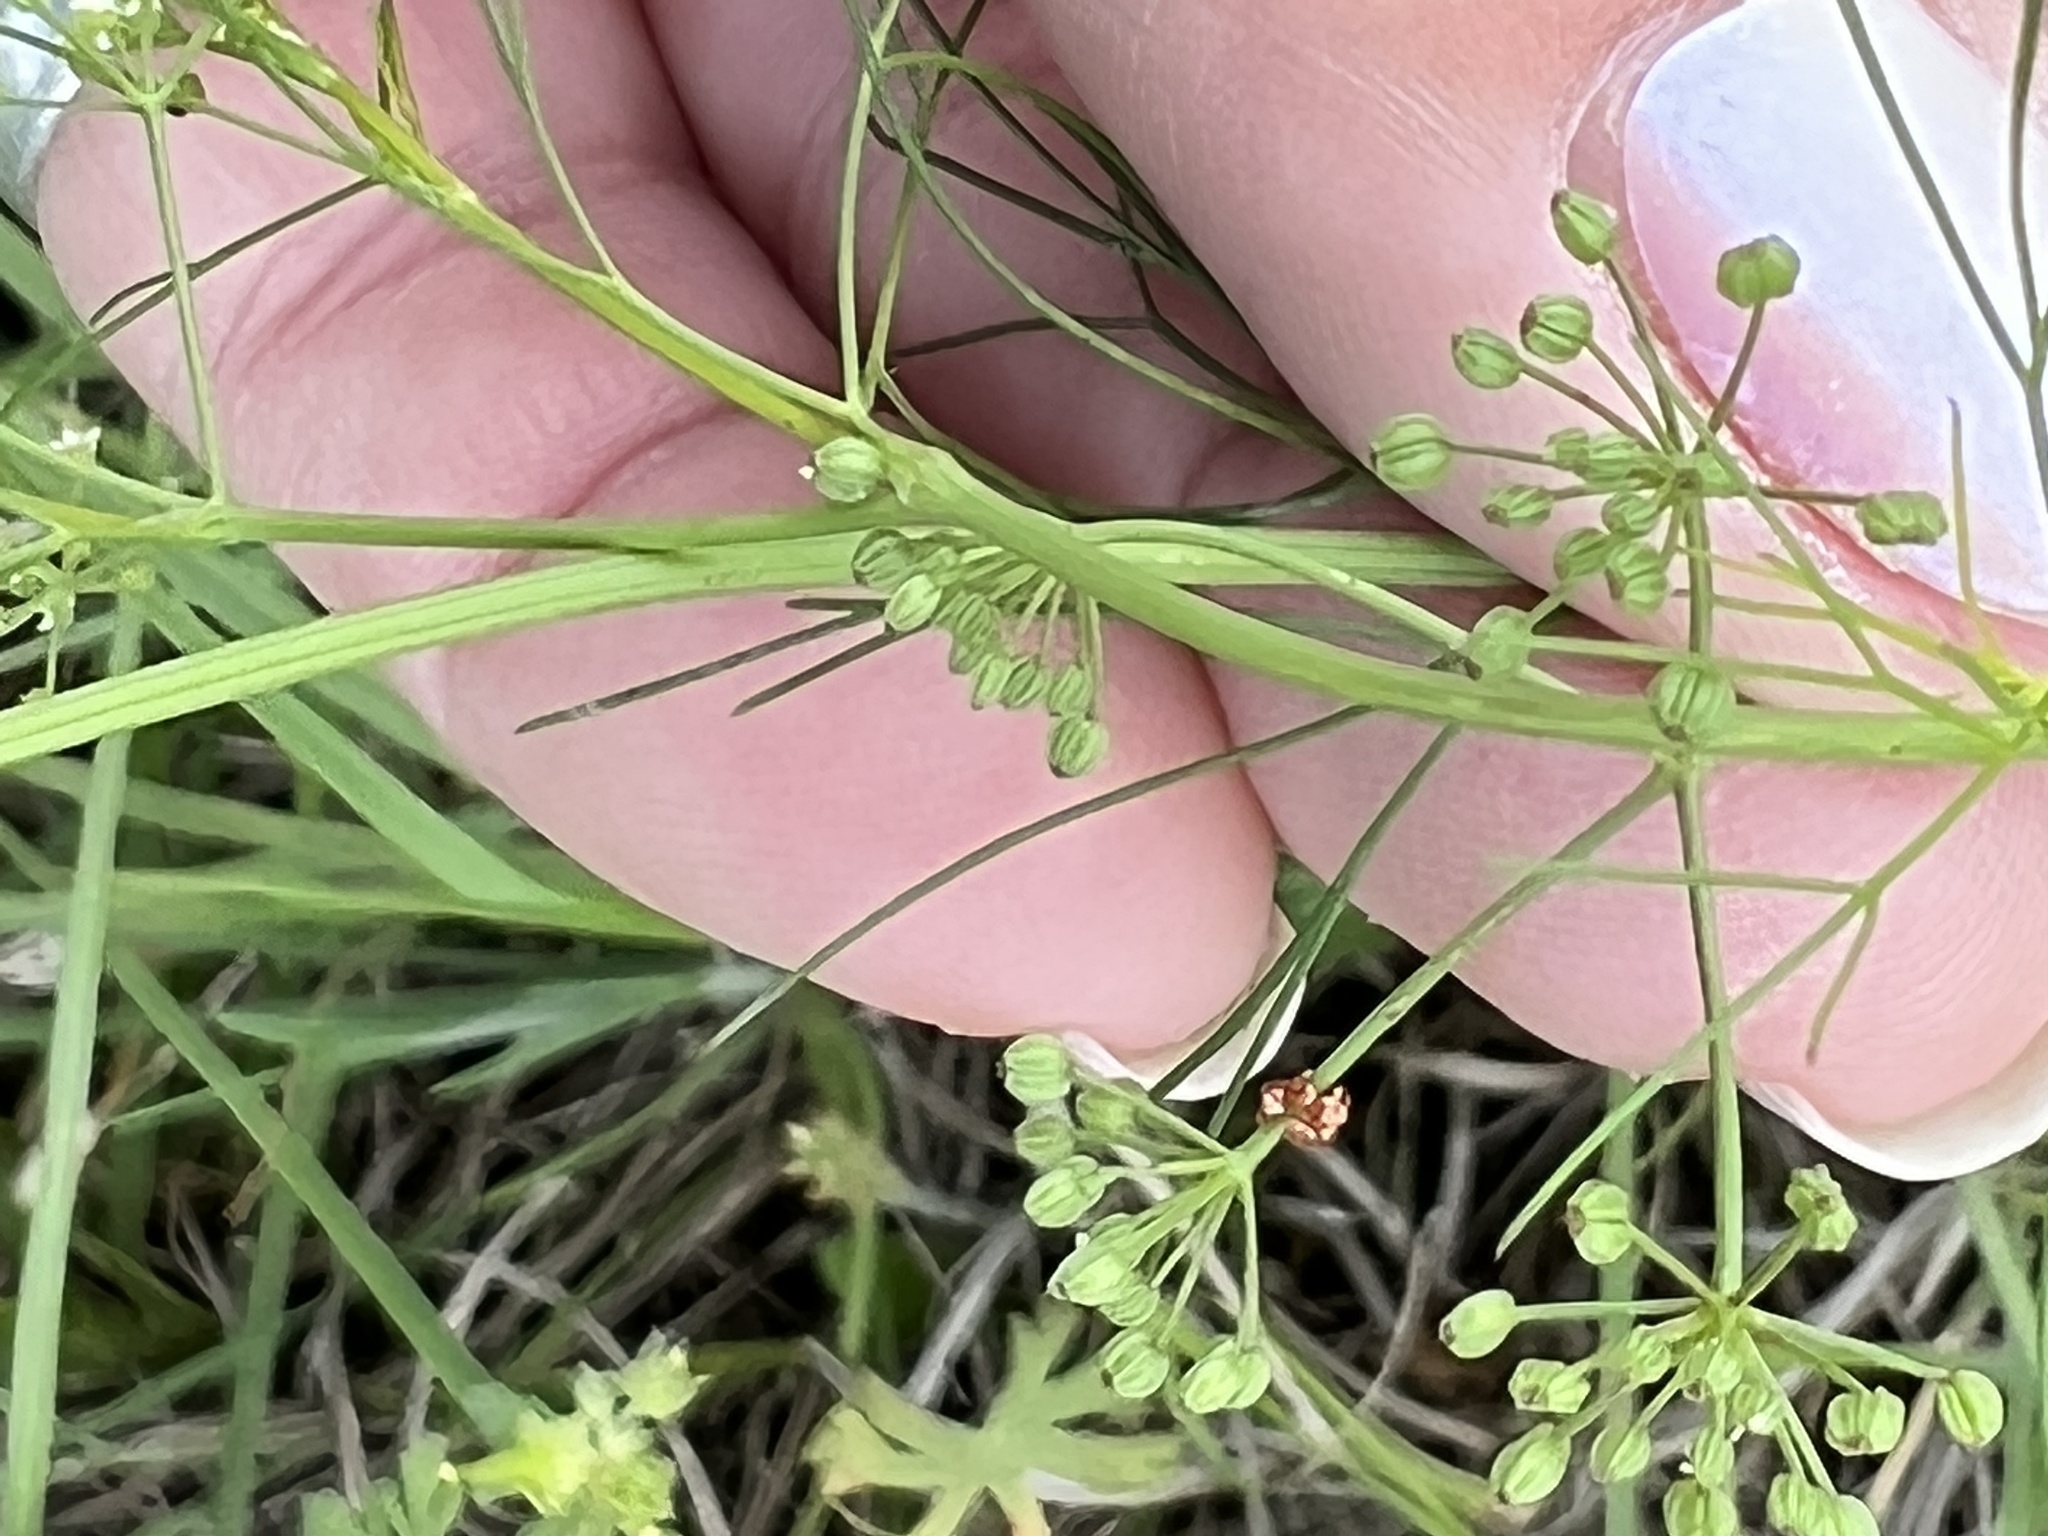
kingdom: Plantae
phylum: Tracheophyta
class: Magnoliopsida
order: Apiales
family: Apiaceae
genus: Cyclospermum
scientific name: Cyclospermum leptophyllum
